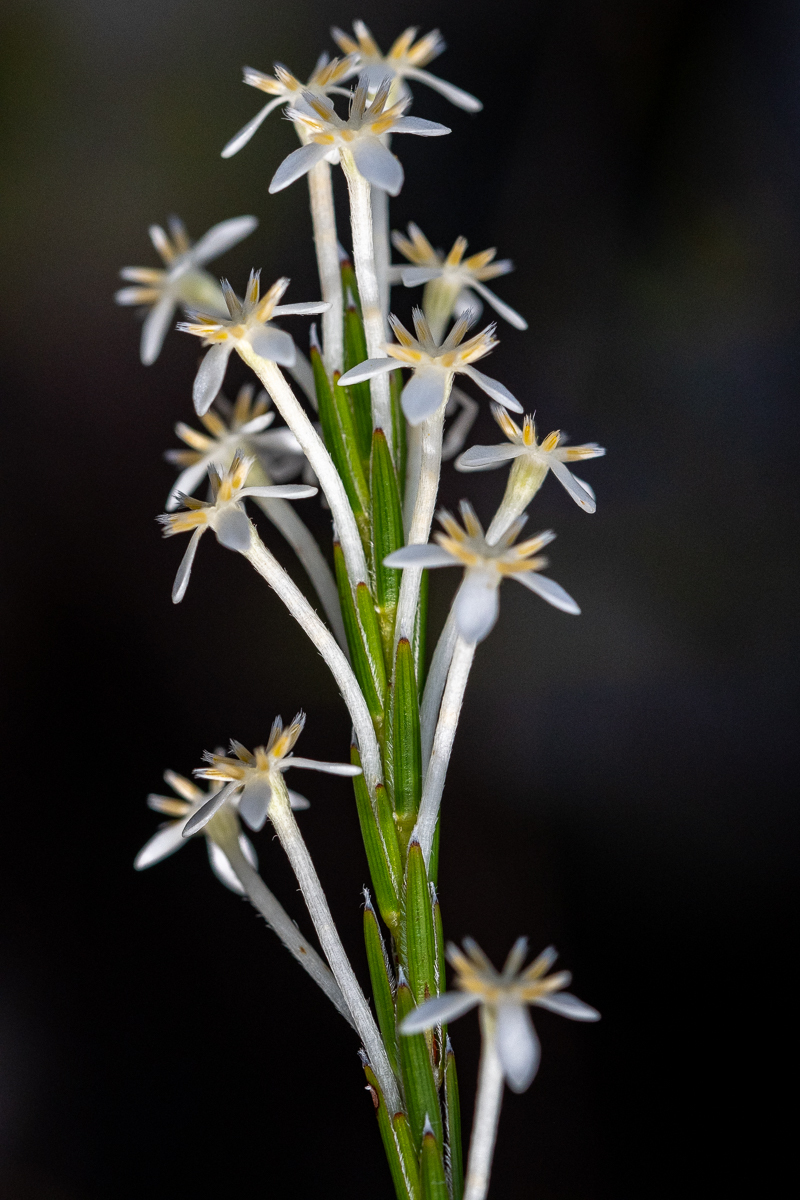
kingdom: Plantae
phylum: Tracheophyta
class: Magnoliopsida
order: Malvales
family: Thymelaeaceae
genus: Struthiola
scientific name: Struthiola ciliata
